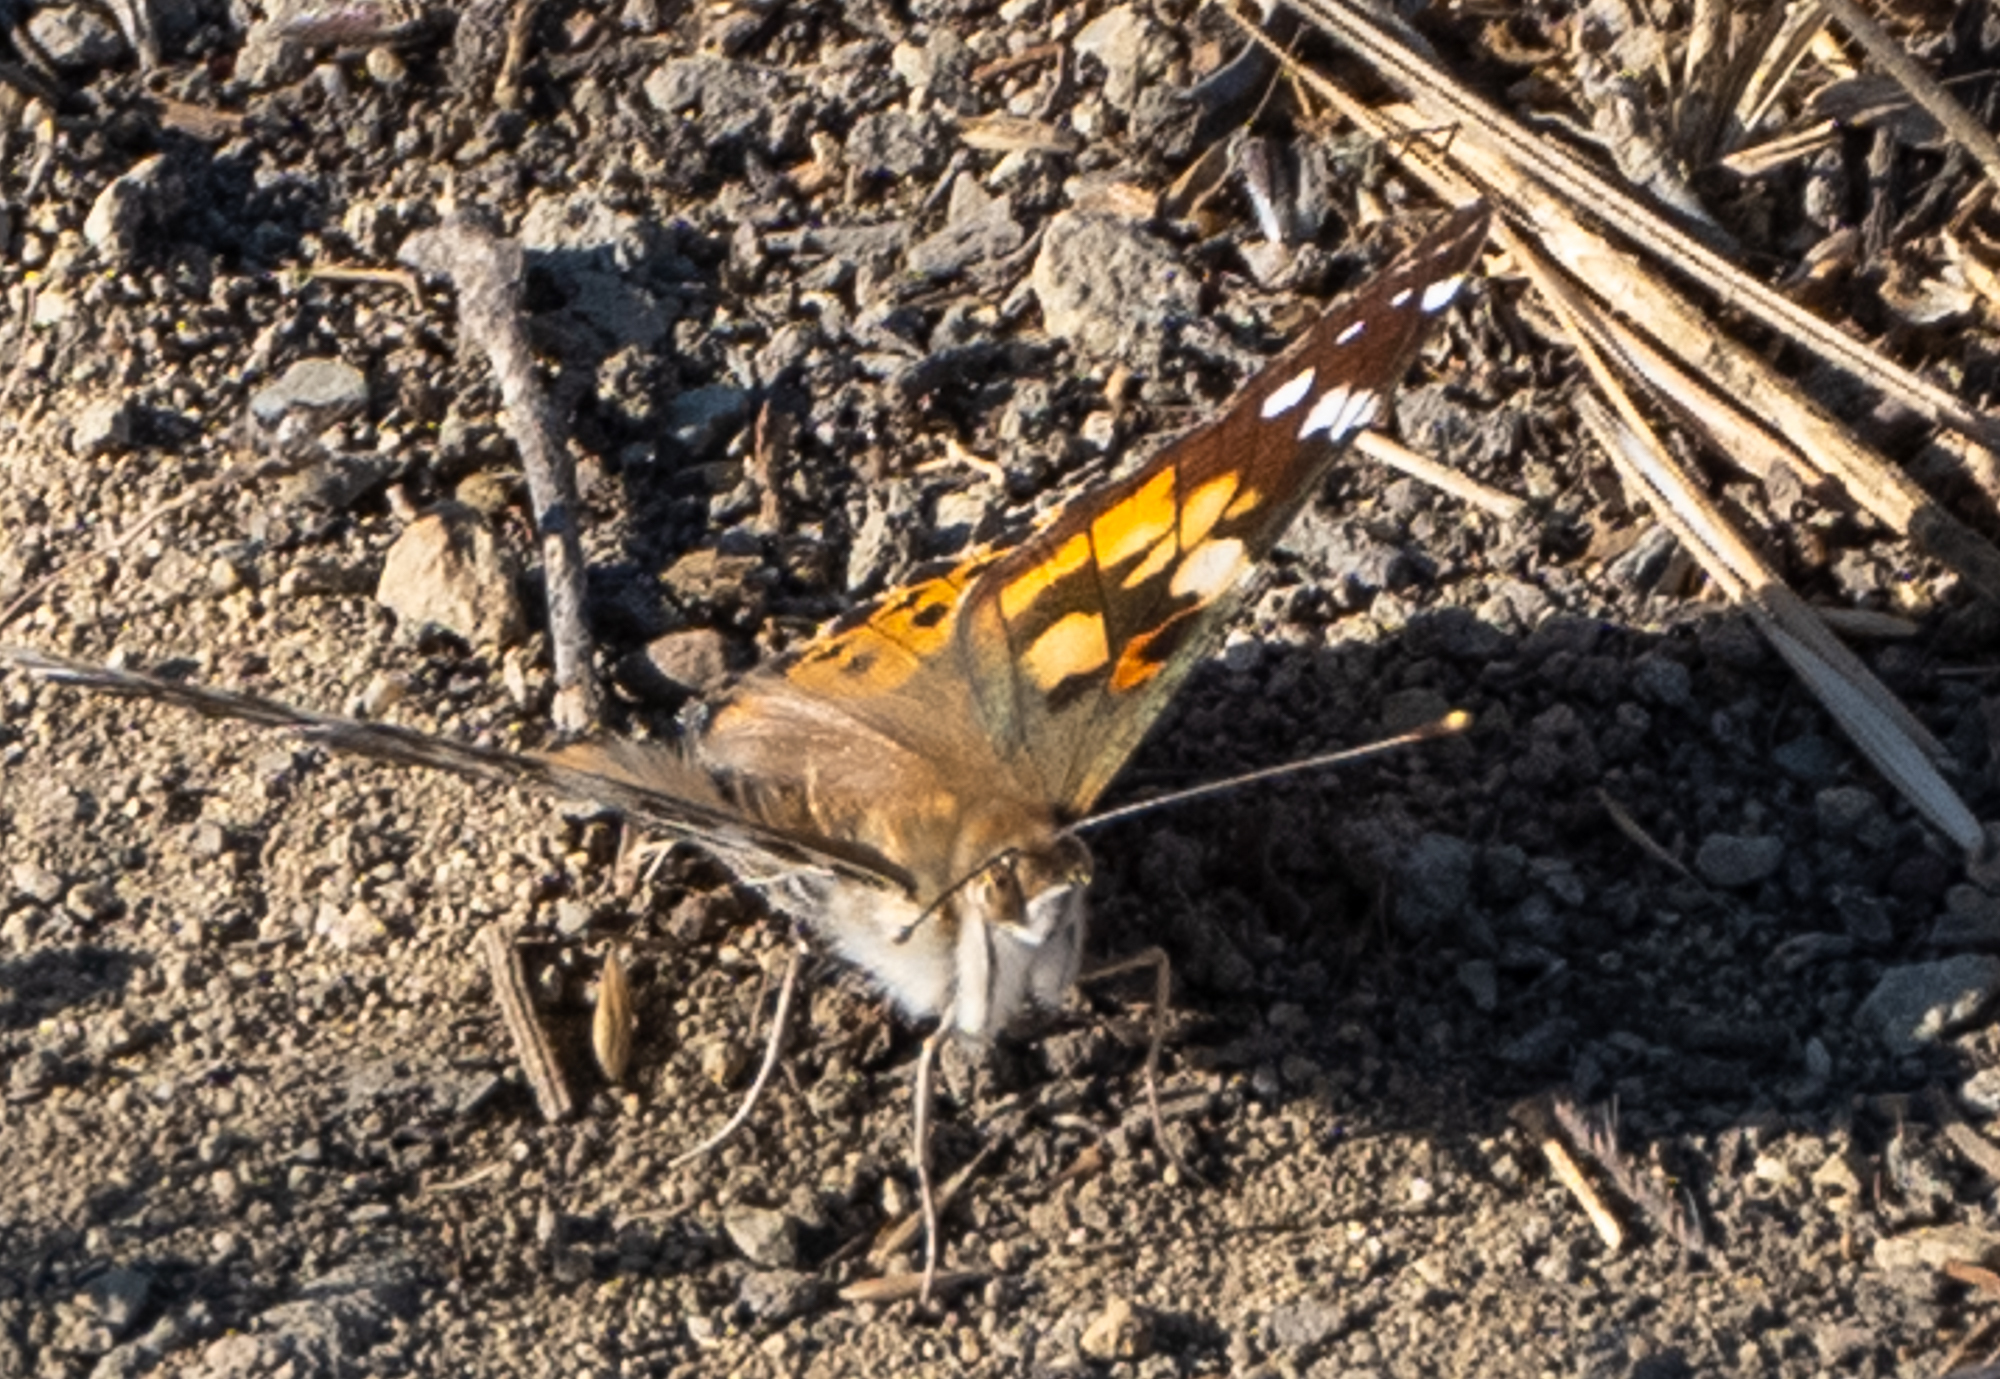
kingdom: Animalia
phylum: Arthropoda
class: Insecta
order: Lepidoptera
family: Nymphalidae
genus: Vanessa
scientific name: Vanessa cardui
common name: Painted lady
